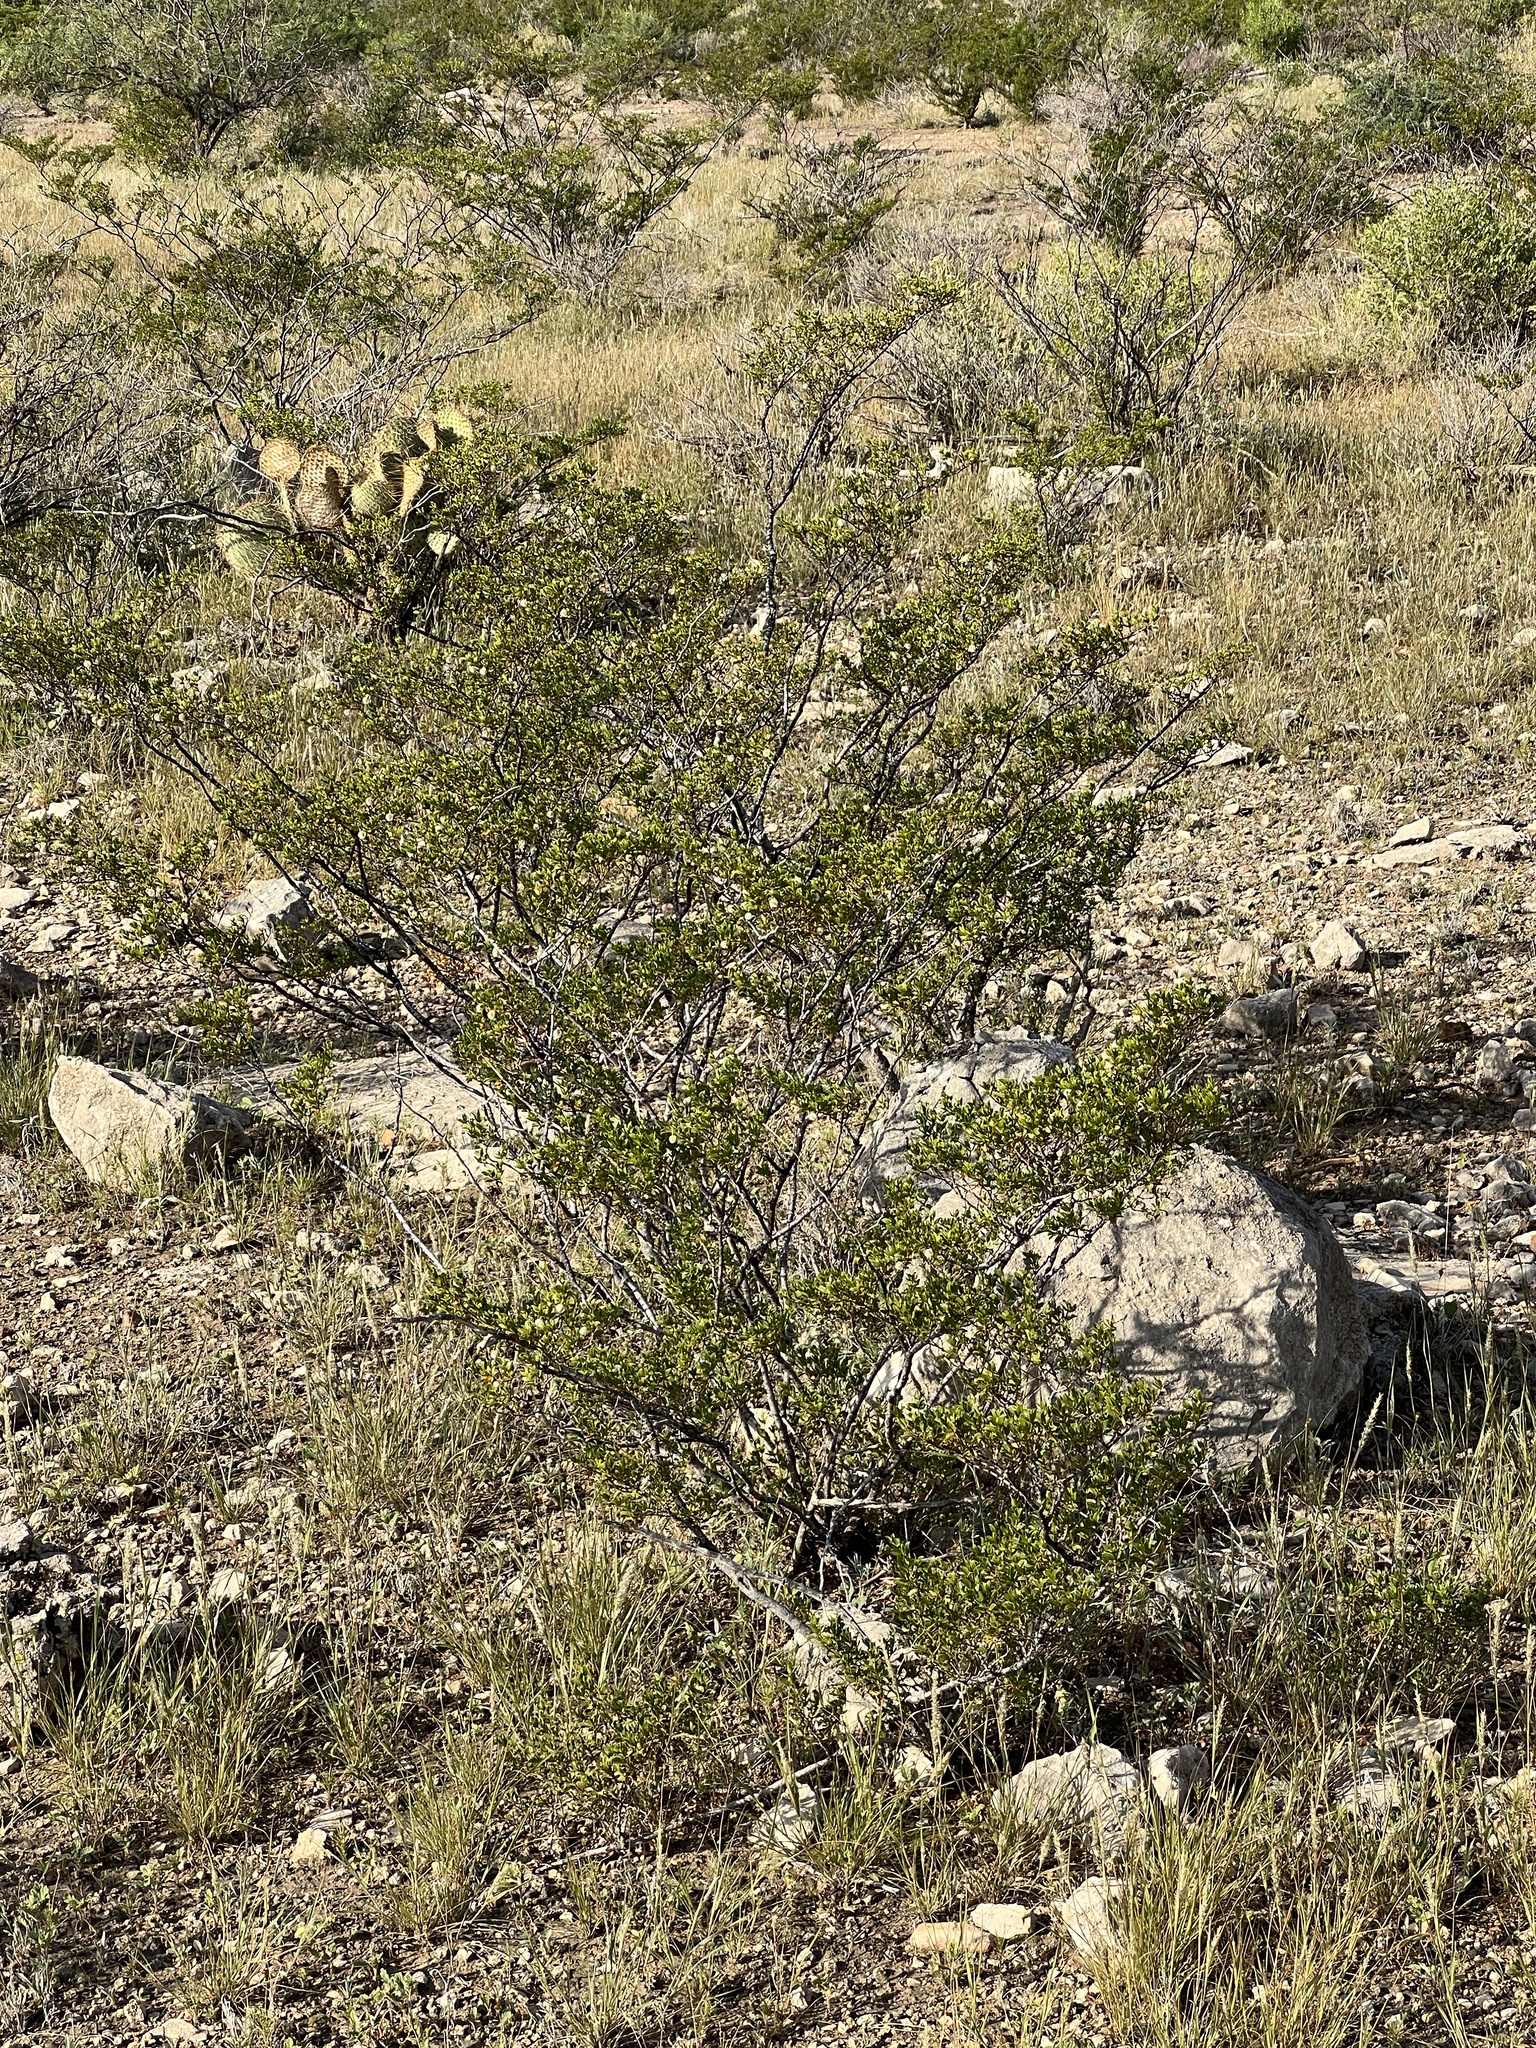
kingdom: Plantae
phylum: Tracheophyta
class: Magnoliopsida
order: Zygophyllales
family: Zygophyllaceae
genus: Larrea
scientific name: Larrea tridentata
